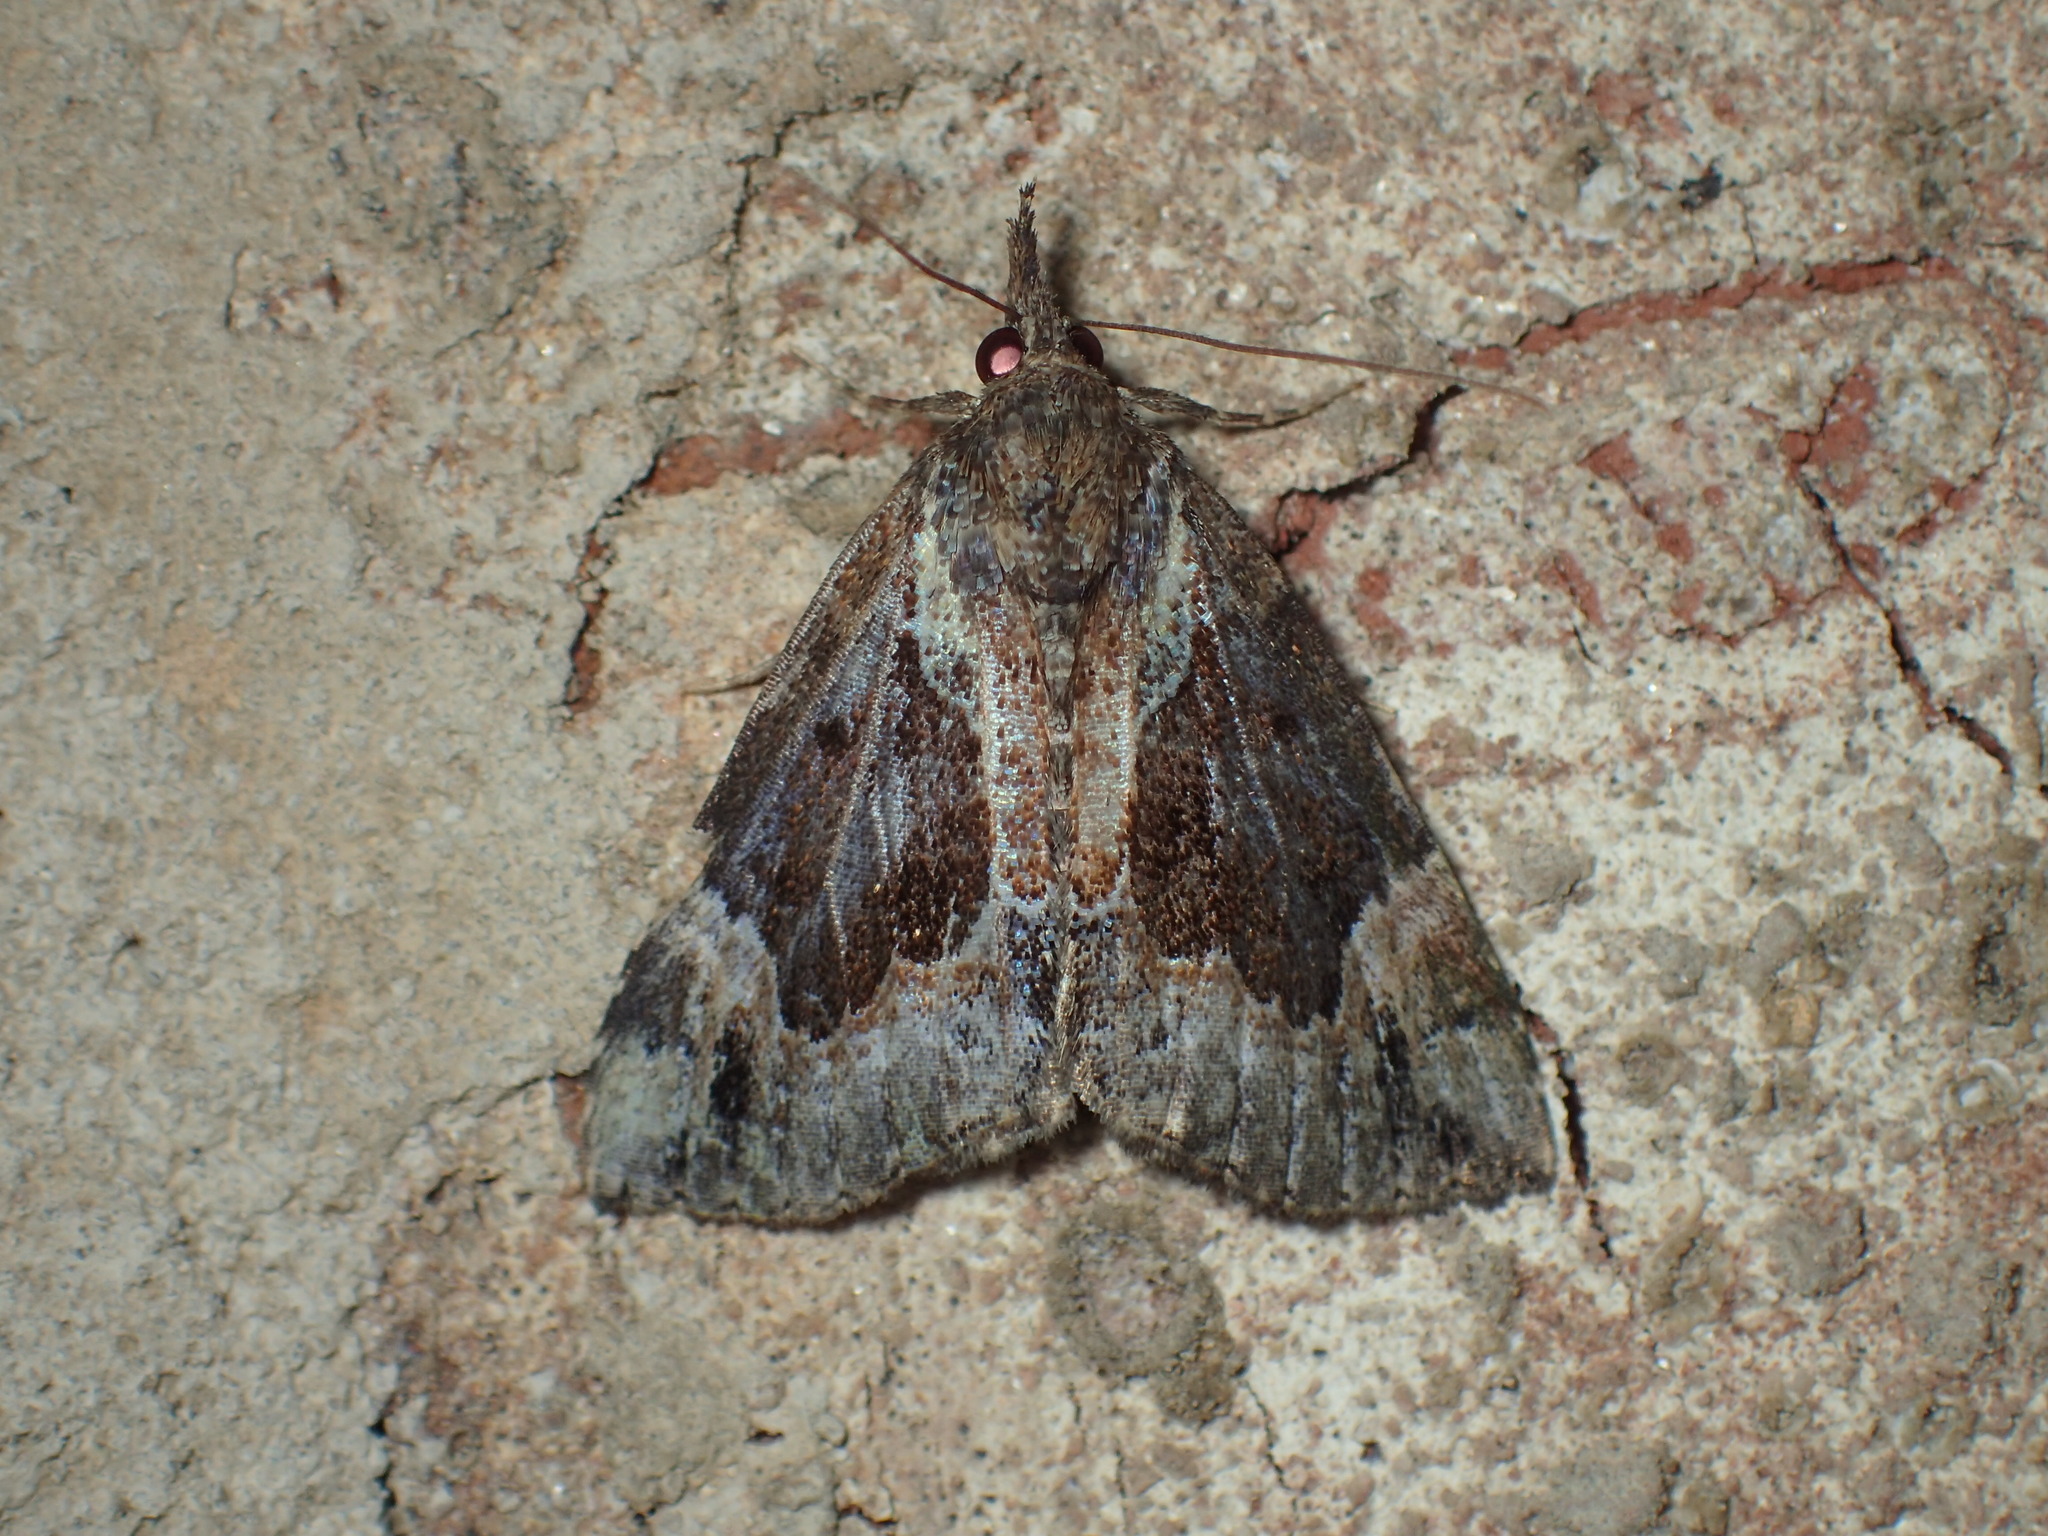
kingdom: Animalia
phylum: Arthropoda
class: Insecta
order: Lepidoptera
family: Erebidae
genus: Hypena
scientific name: Hypena palparia
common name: Mottled bomolocha moth
